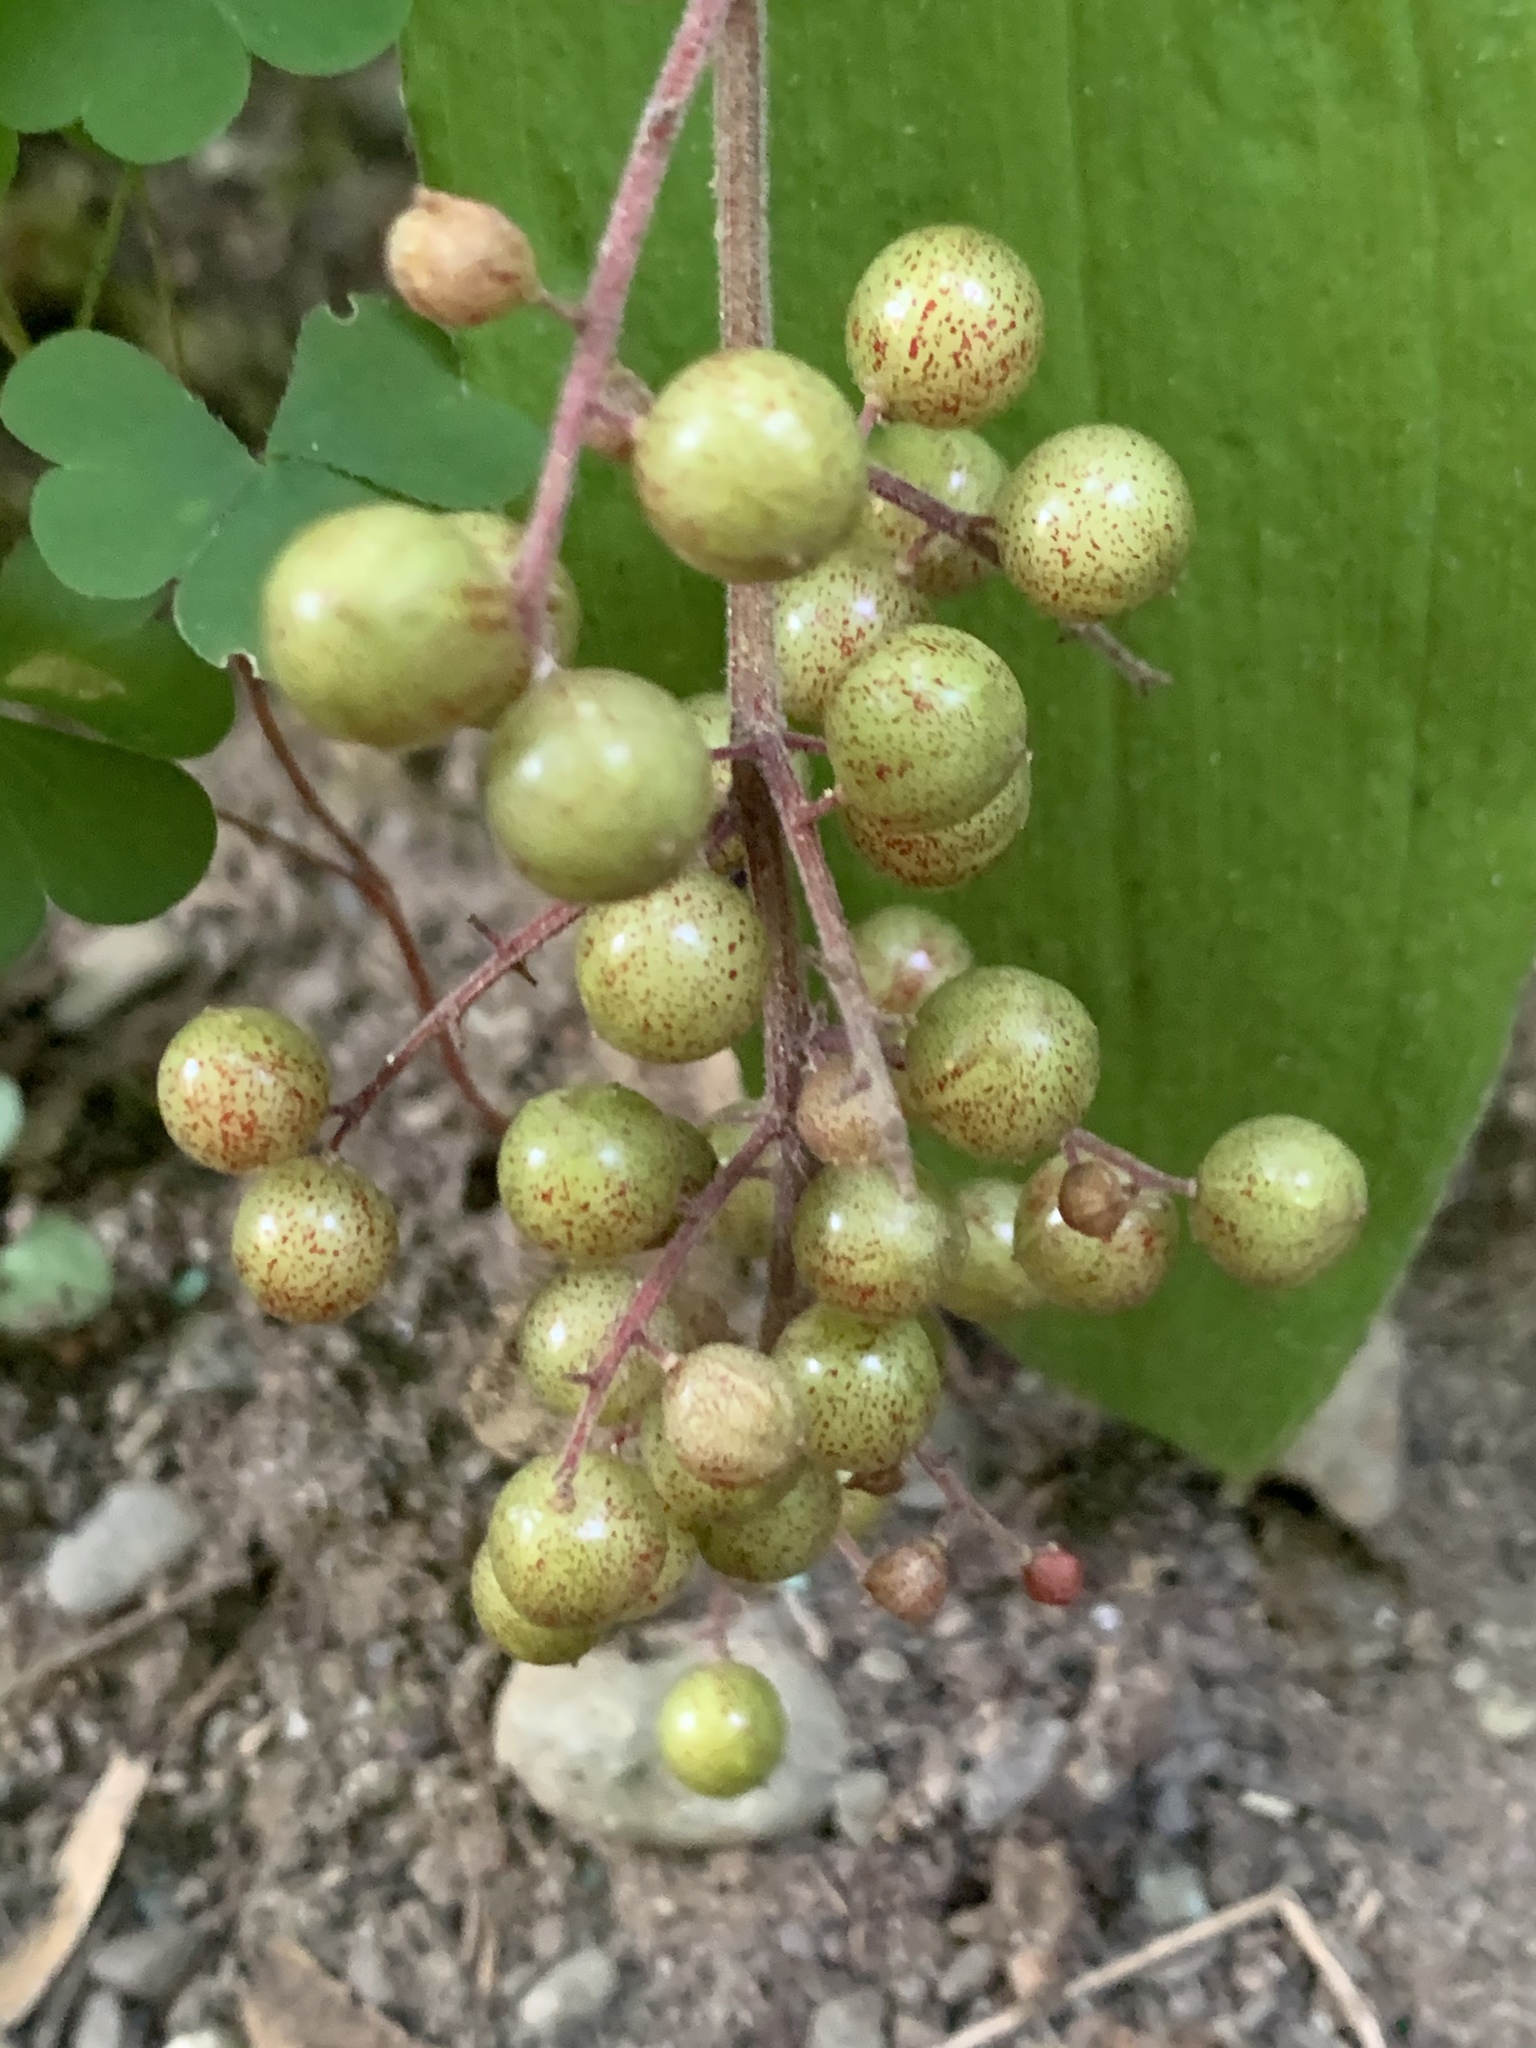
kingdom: Plantae
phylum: Tracheophyta
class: Liliopsida
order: Asparagales
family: Asparagaceae
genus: Maianthemum
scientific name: Maianthemum racemosum
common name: False spikenard
